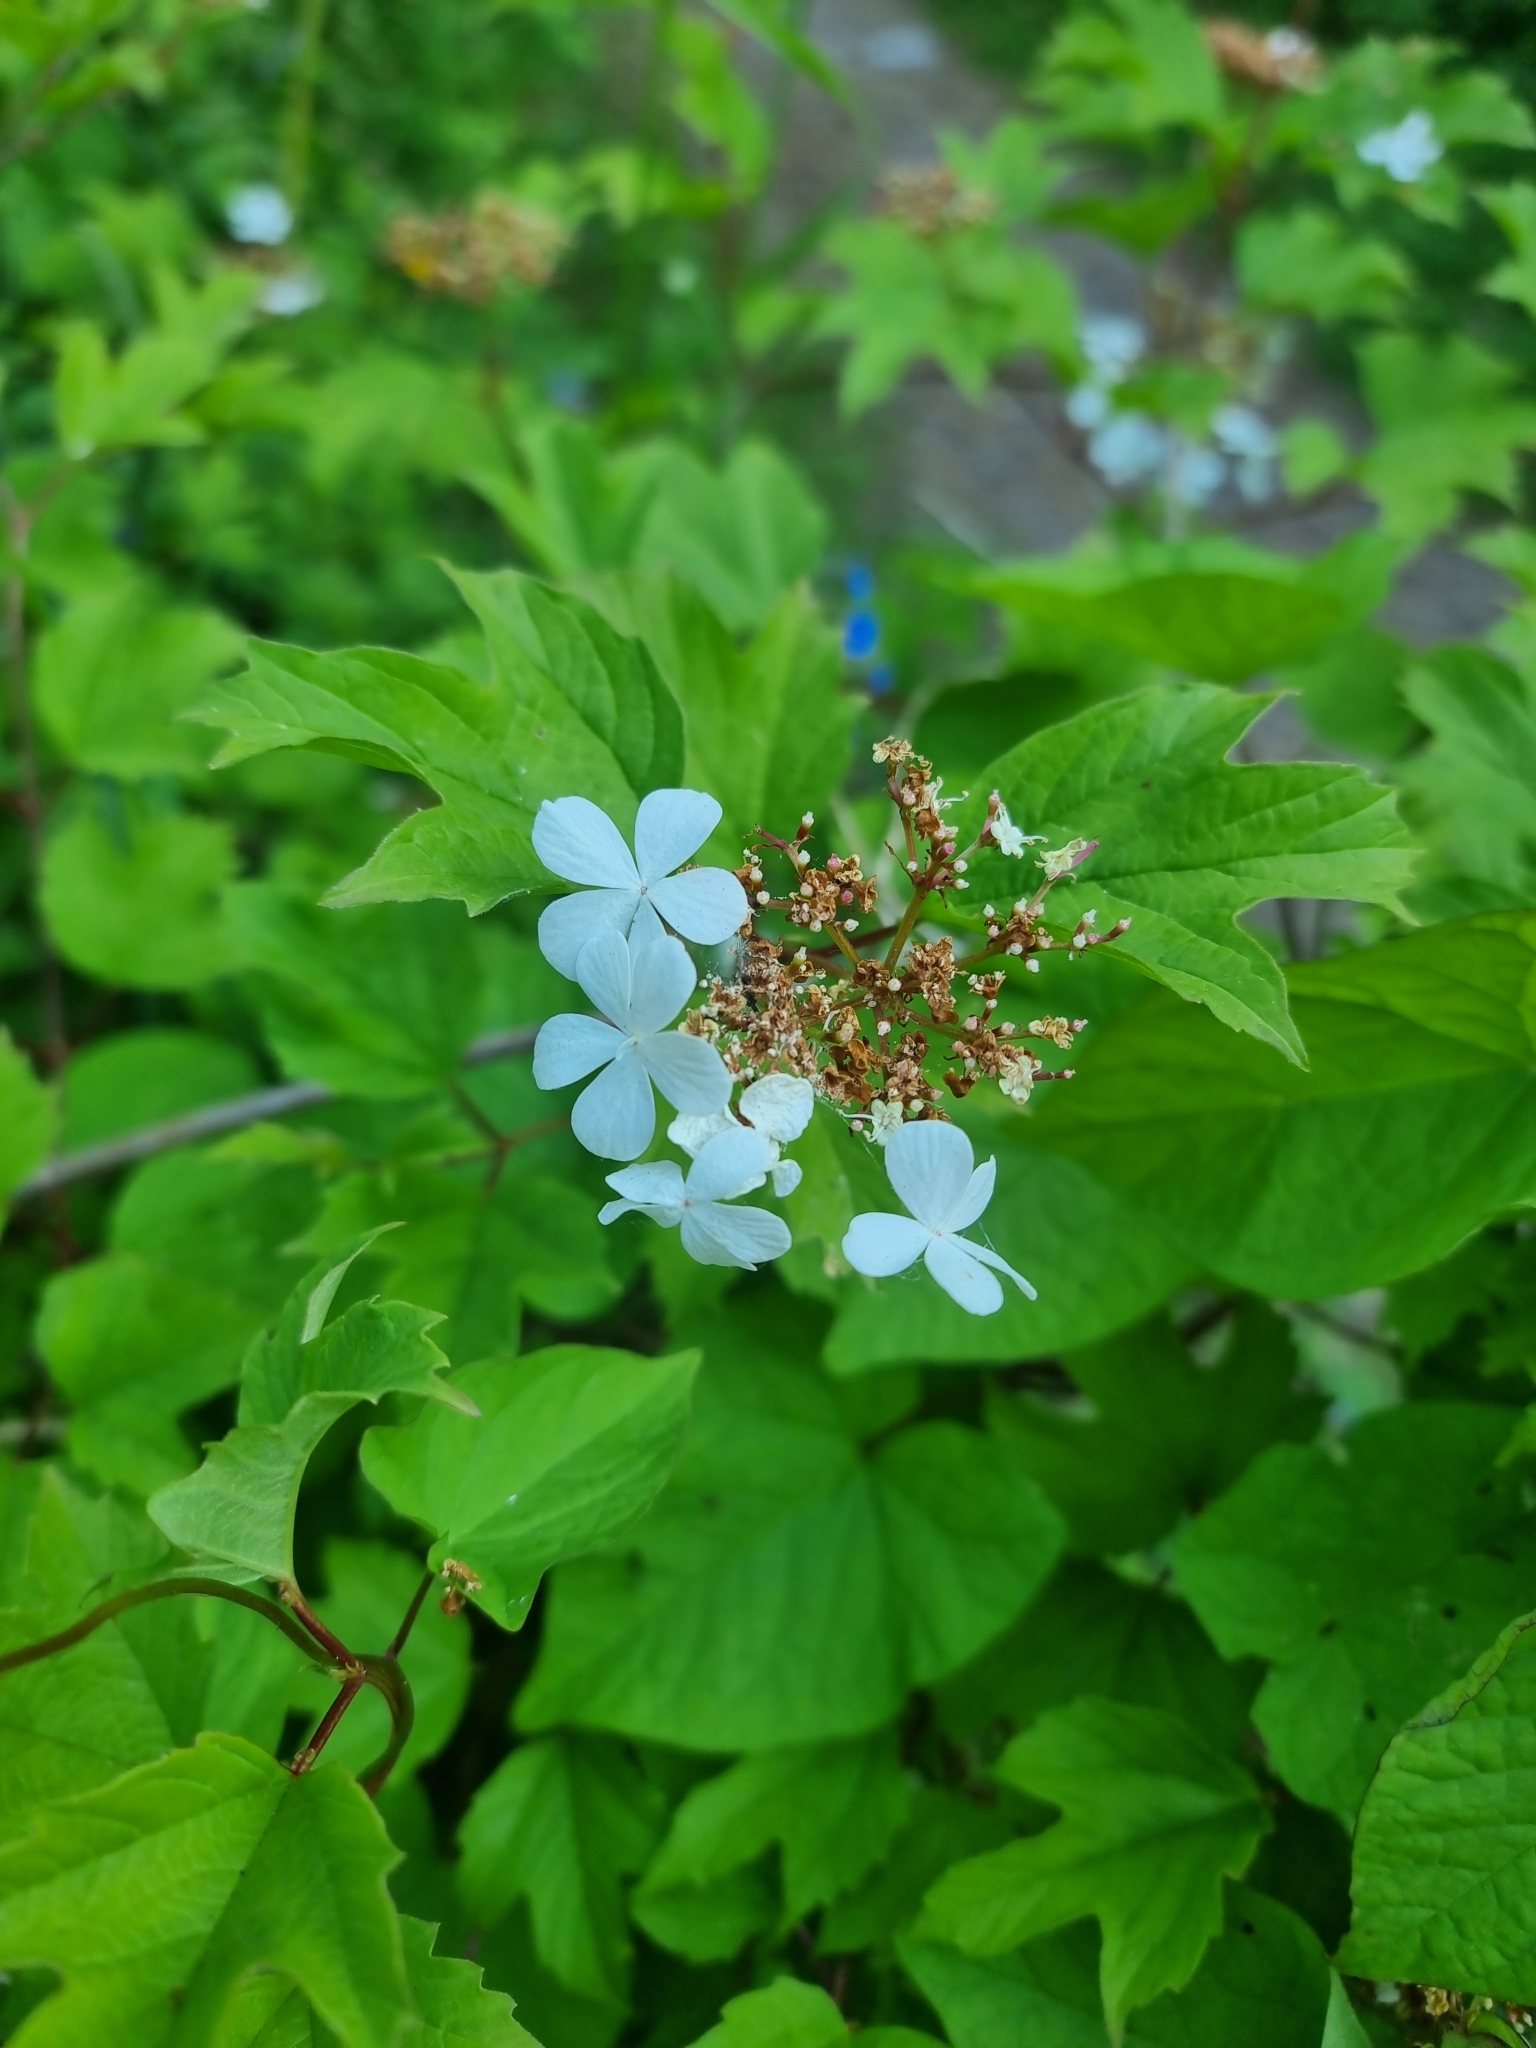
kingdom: Plantae
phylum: Tracheophyta
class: Magnoliopsida
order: Dipsacales
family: Viburnaceae
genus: Viburnum
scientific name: Viburnum opulus
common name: Guelder-rose
